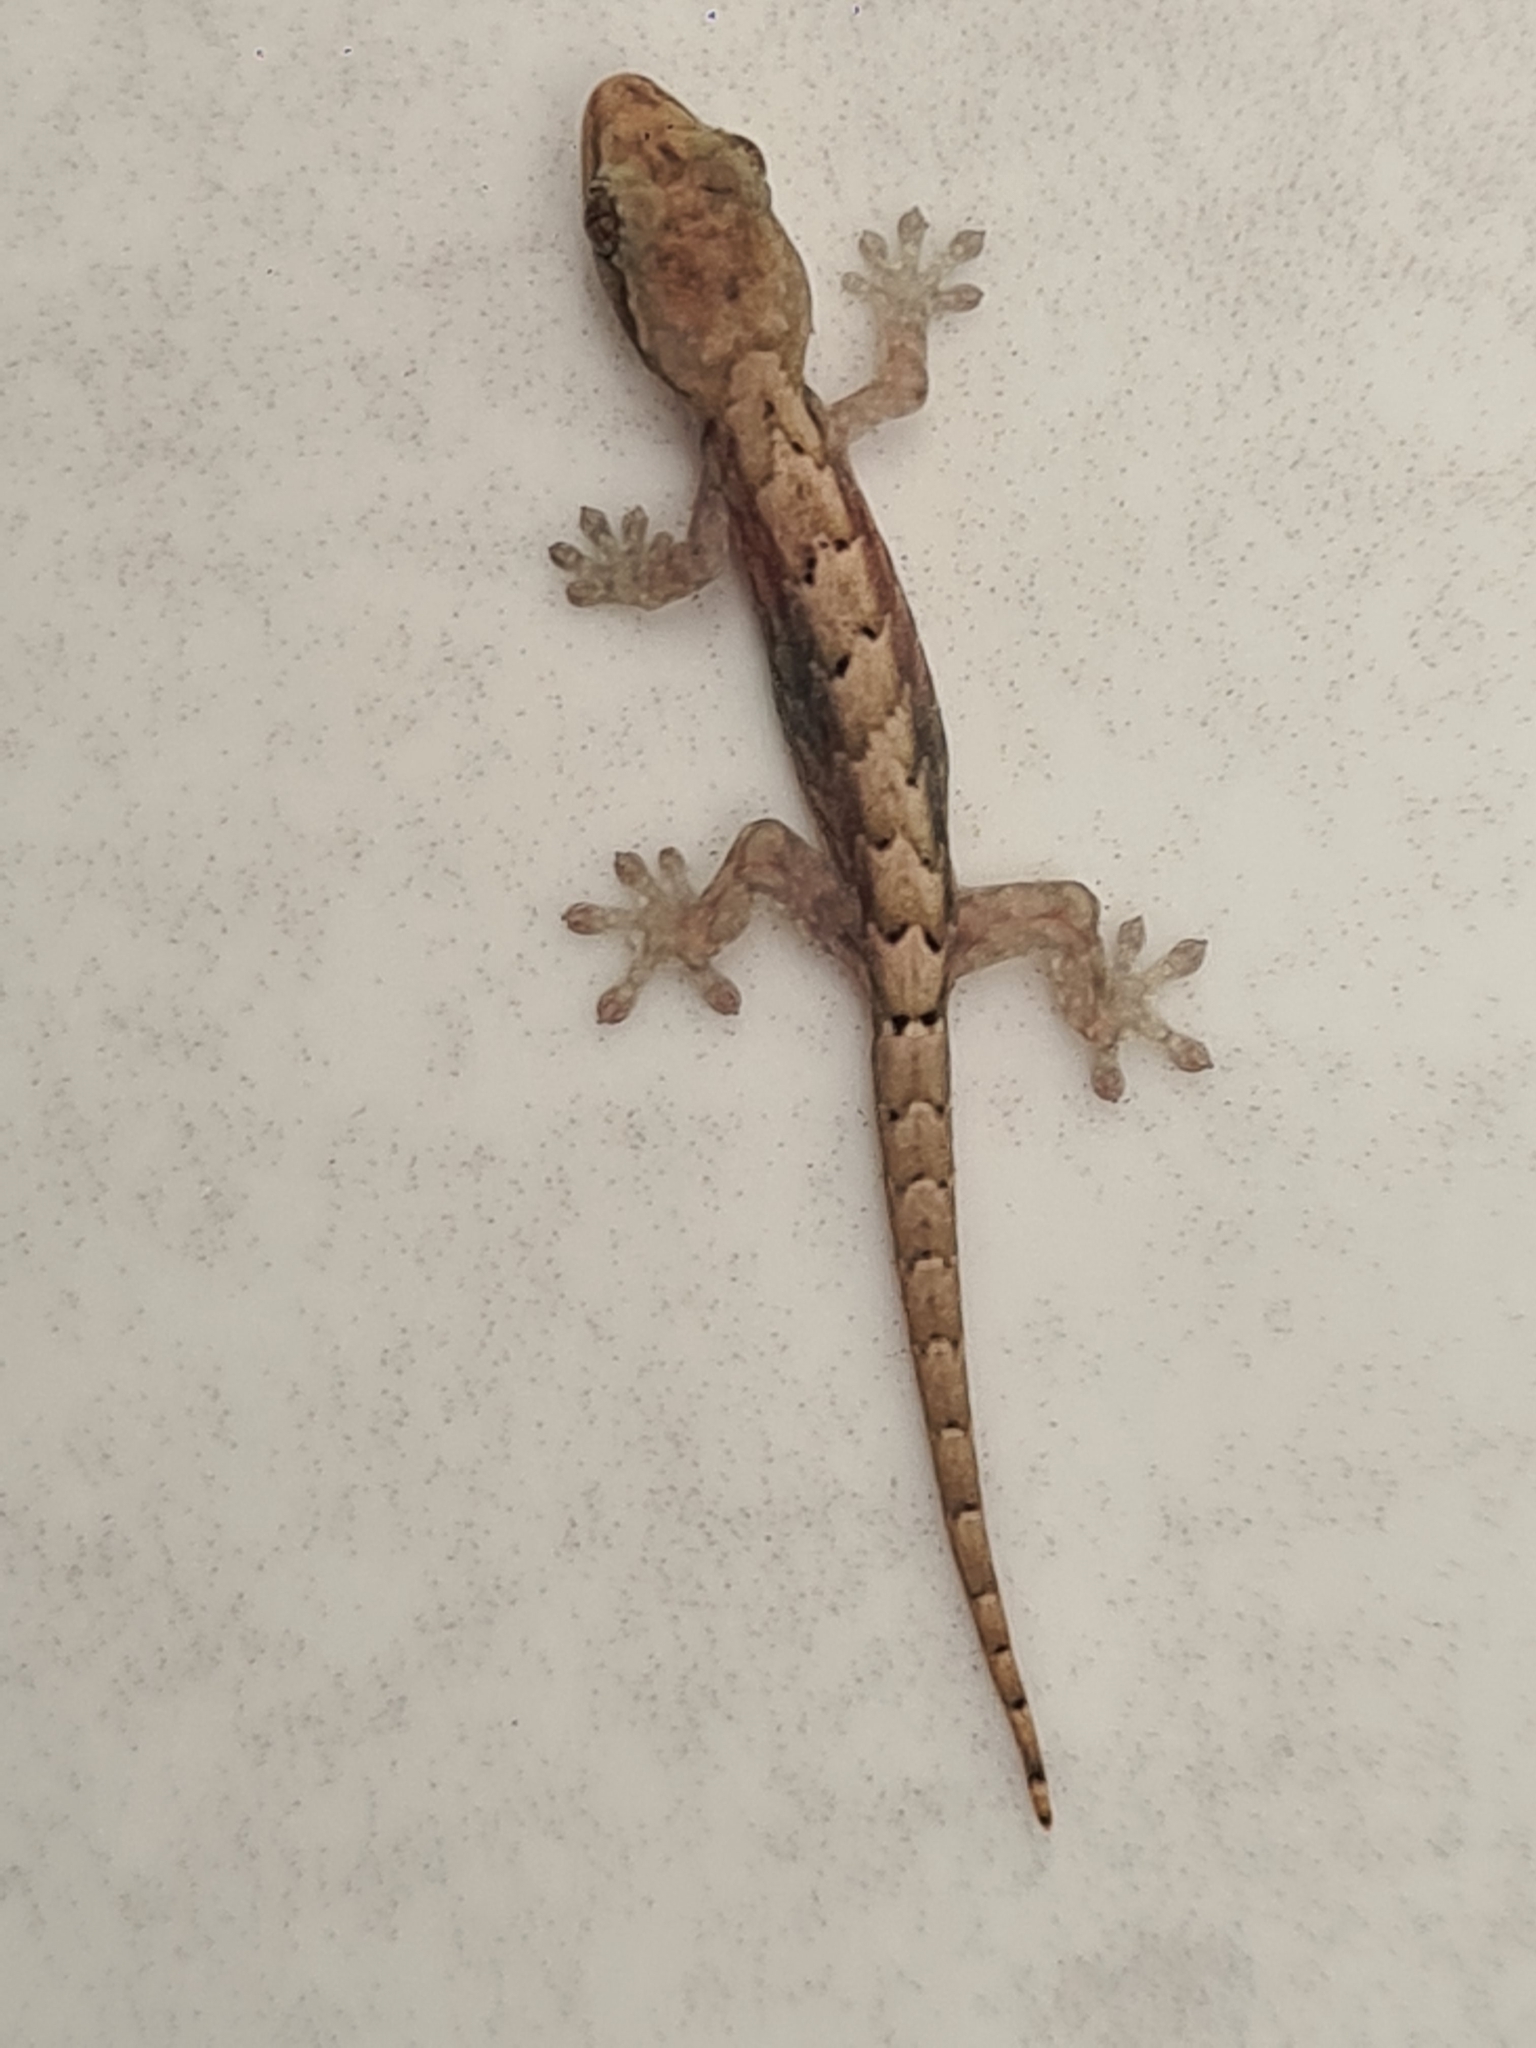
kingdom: Animalia
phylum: Chordata
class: Squamata
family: Gekkonidae
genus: Lepidodactylus
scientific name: Lepidodactylus lugubris
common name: Mourning gecko
